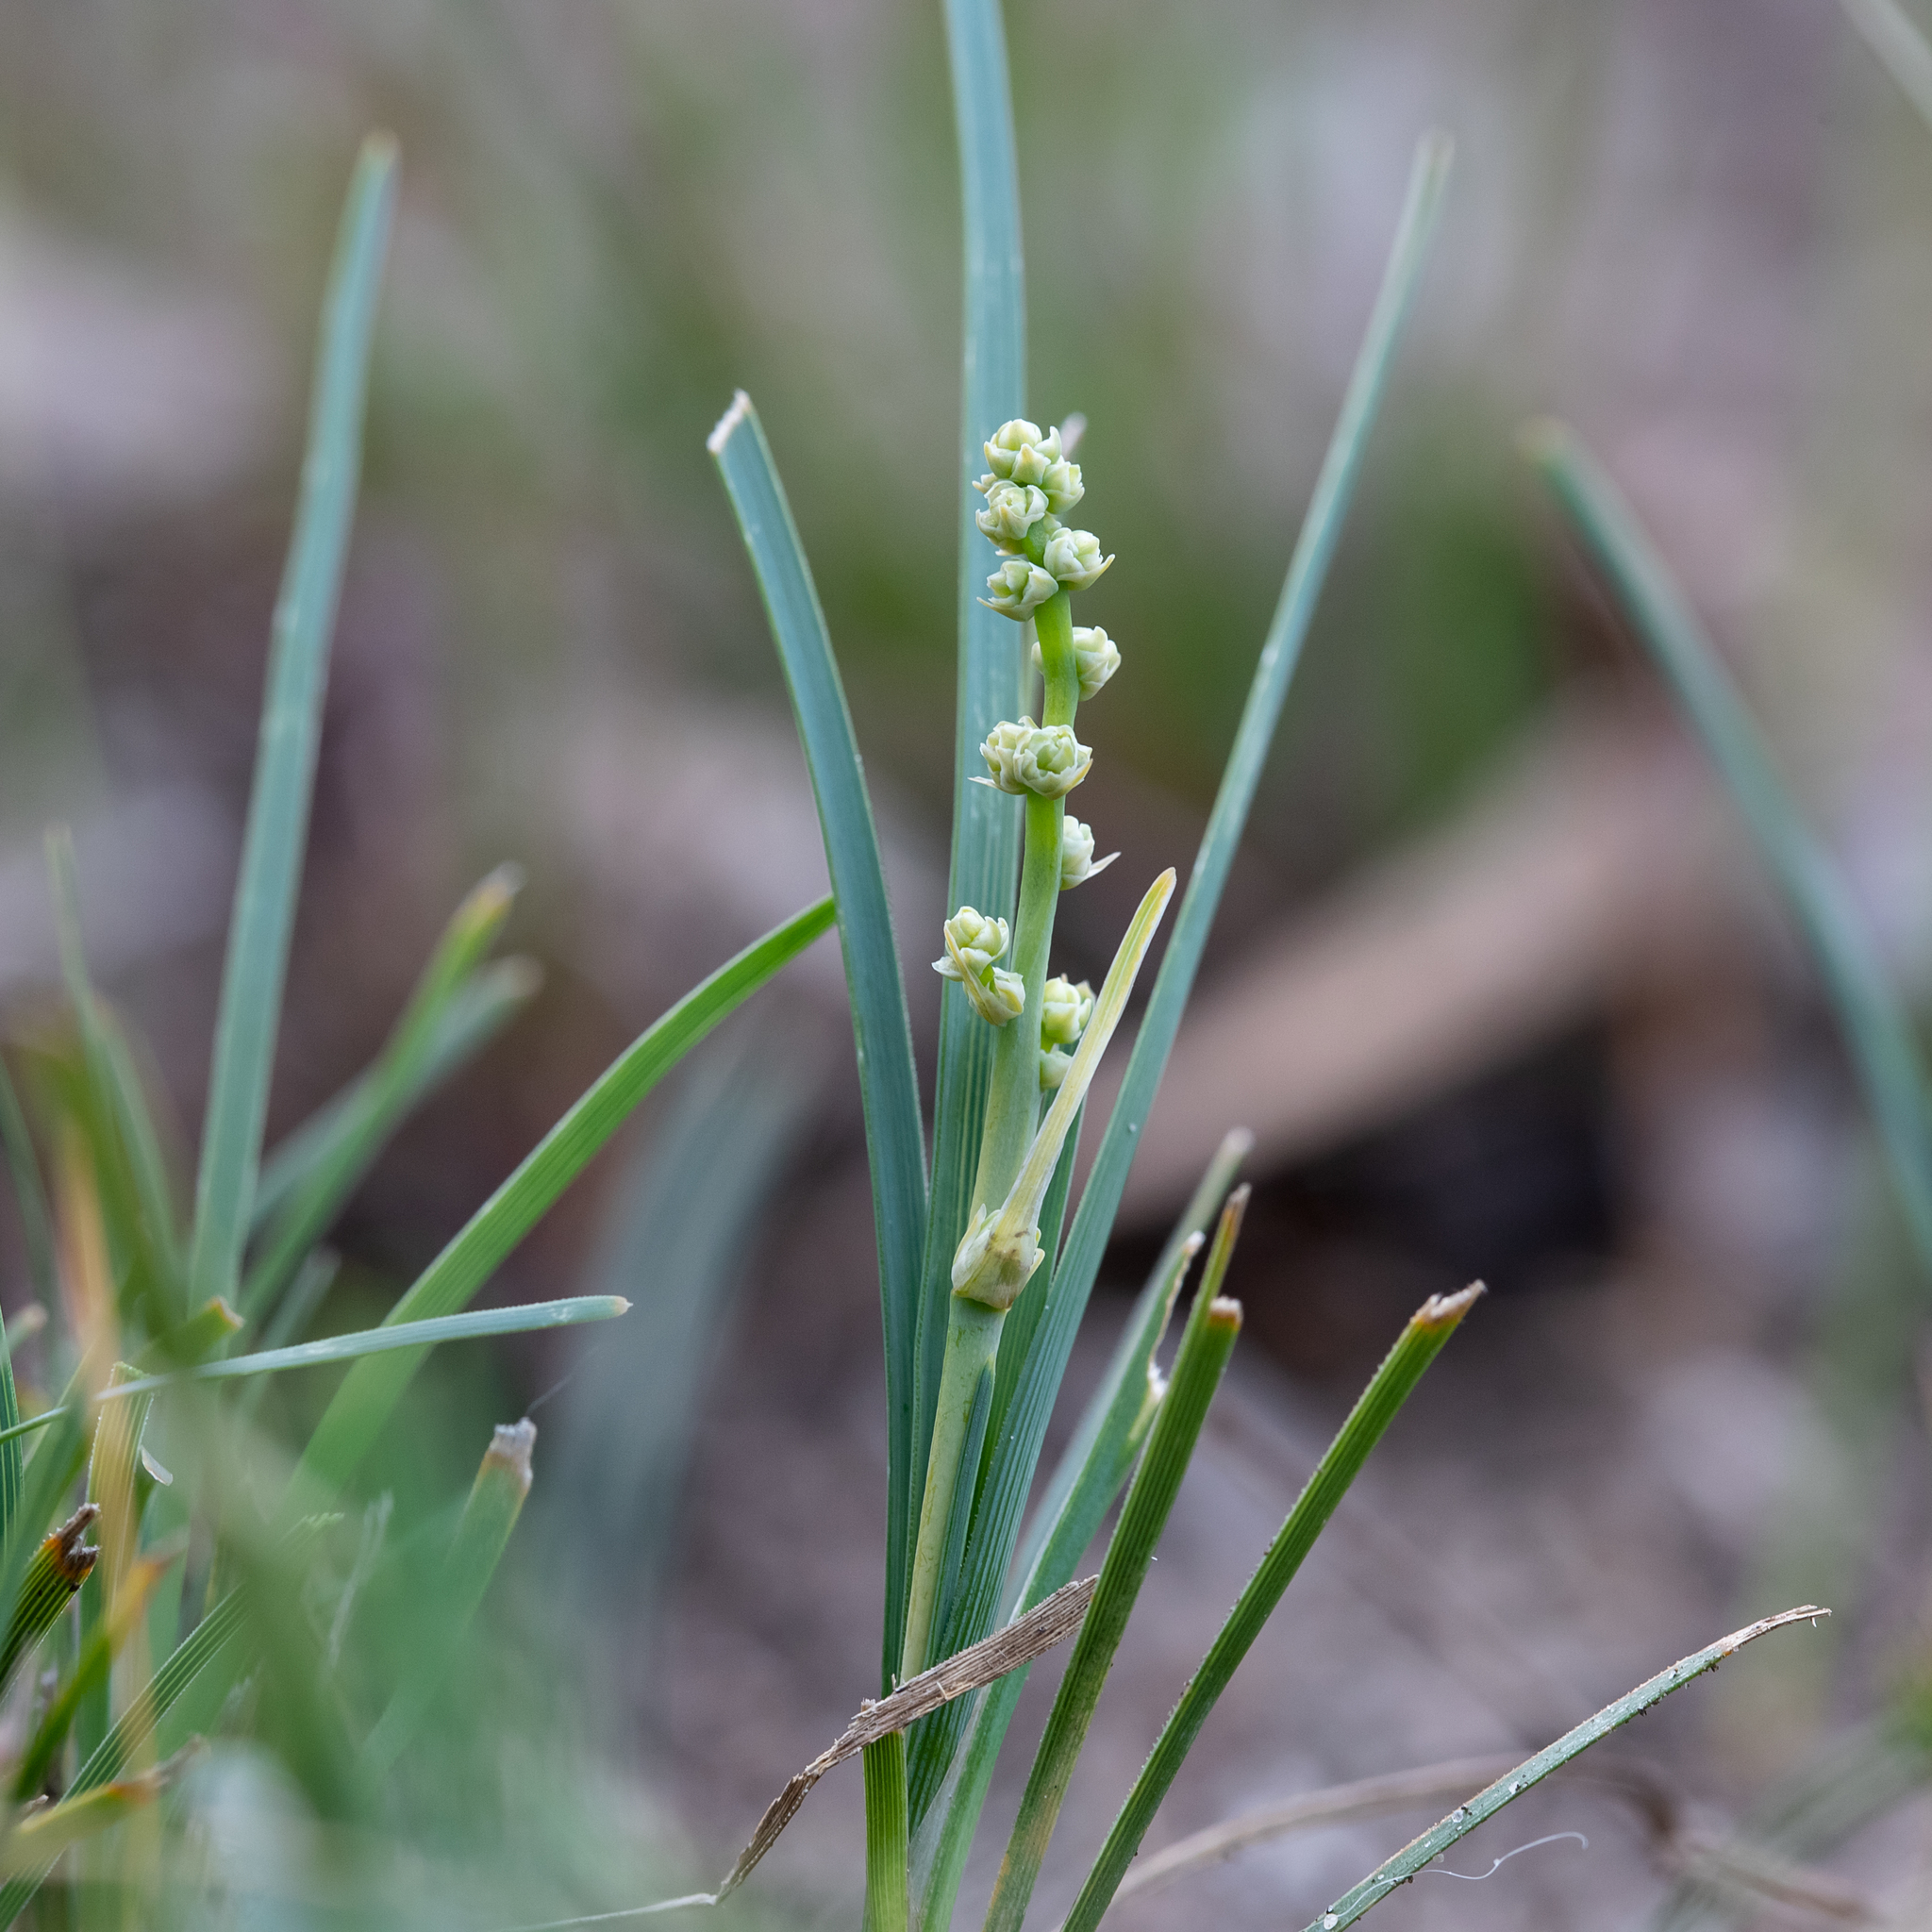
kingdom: Plantae
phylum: Tracheophyta
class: Liliopsida
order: Asparagales
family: Asparagaceae
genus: Lomandra
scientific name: Lomandra nana
